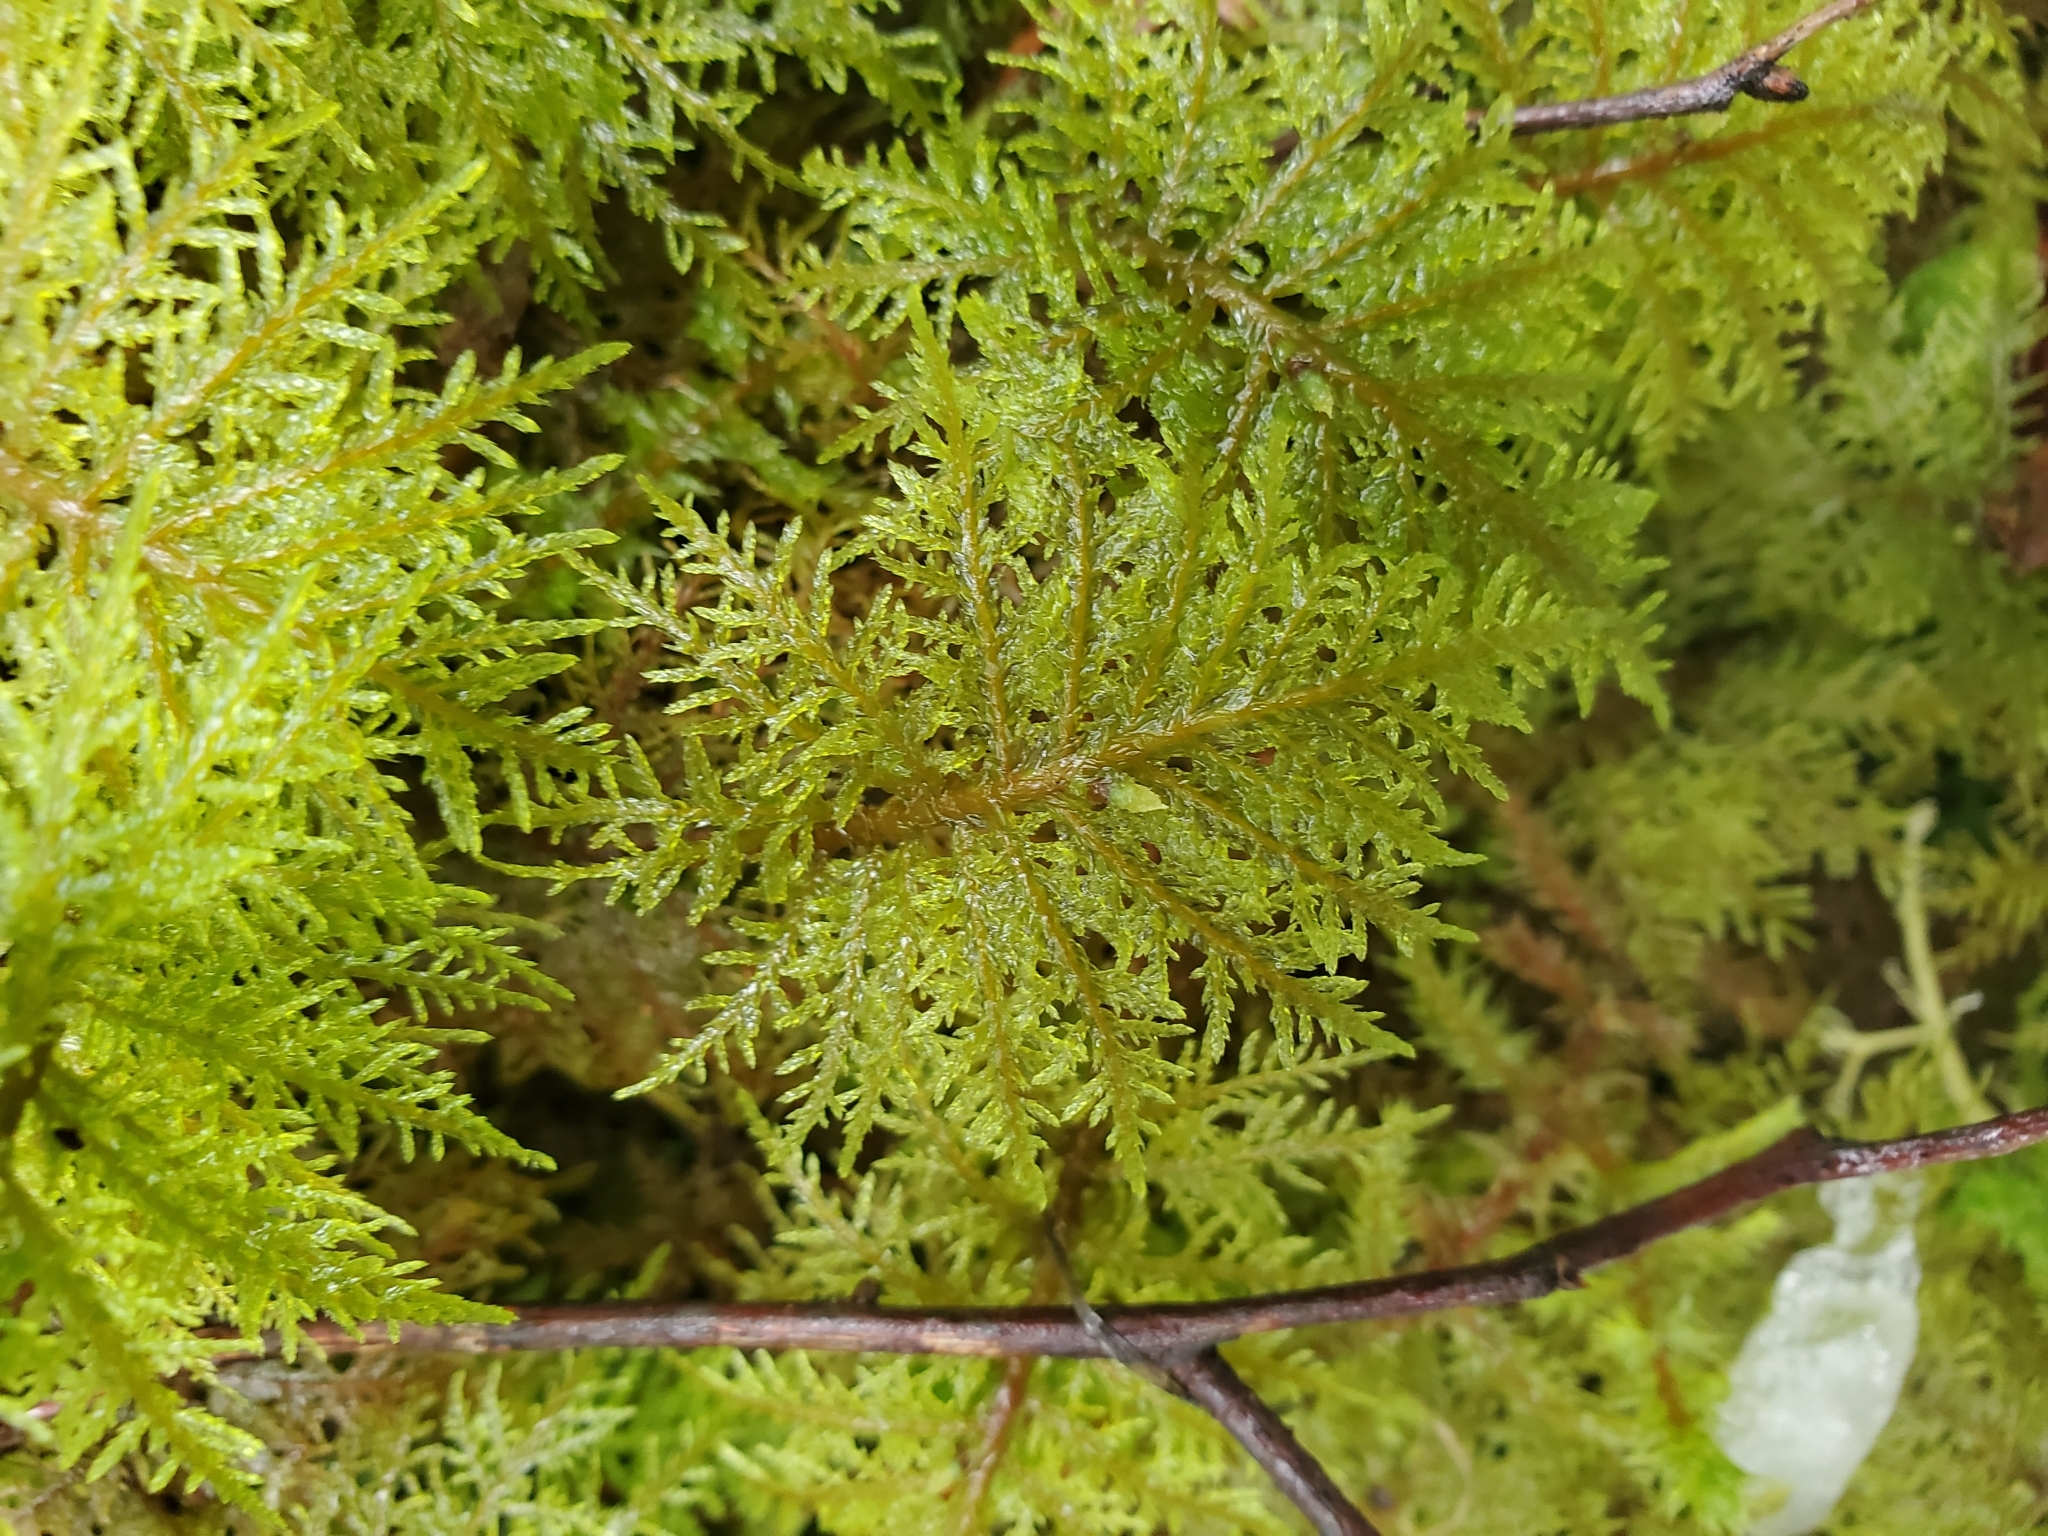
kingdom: Plantae
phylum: Bryophyta
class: Bryopsida
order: Hypnales
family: Hylocomiaceae
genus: Hylocomium
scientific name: Hylocomium splendens
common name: Stairstep moss
